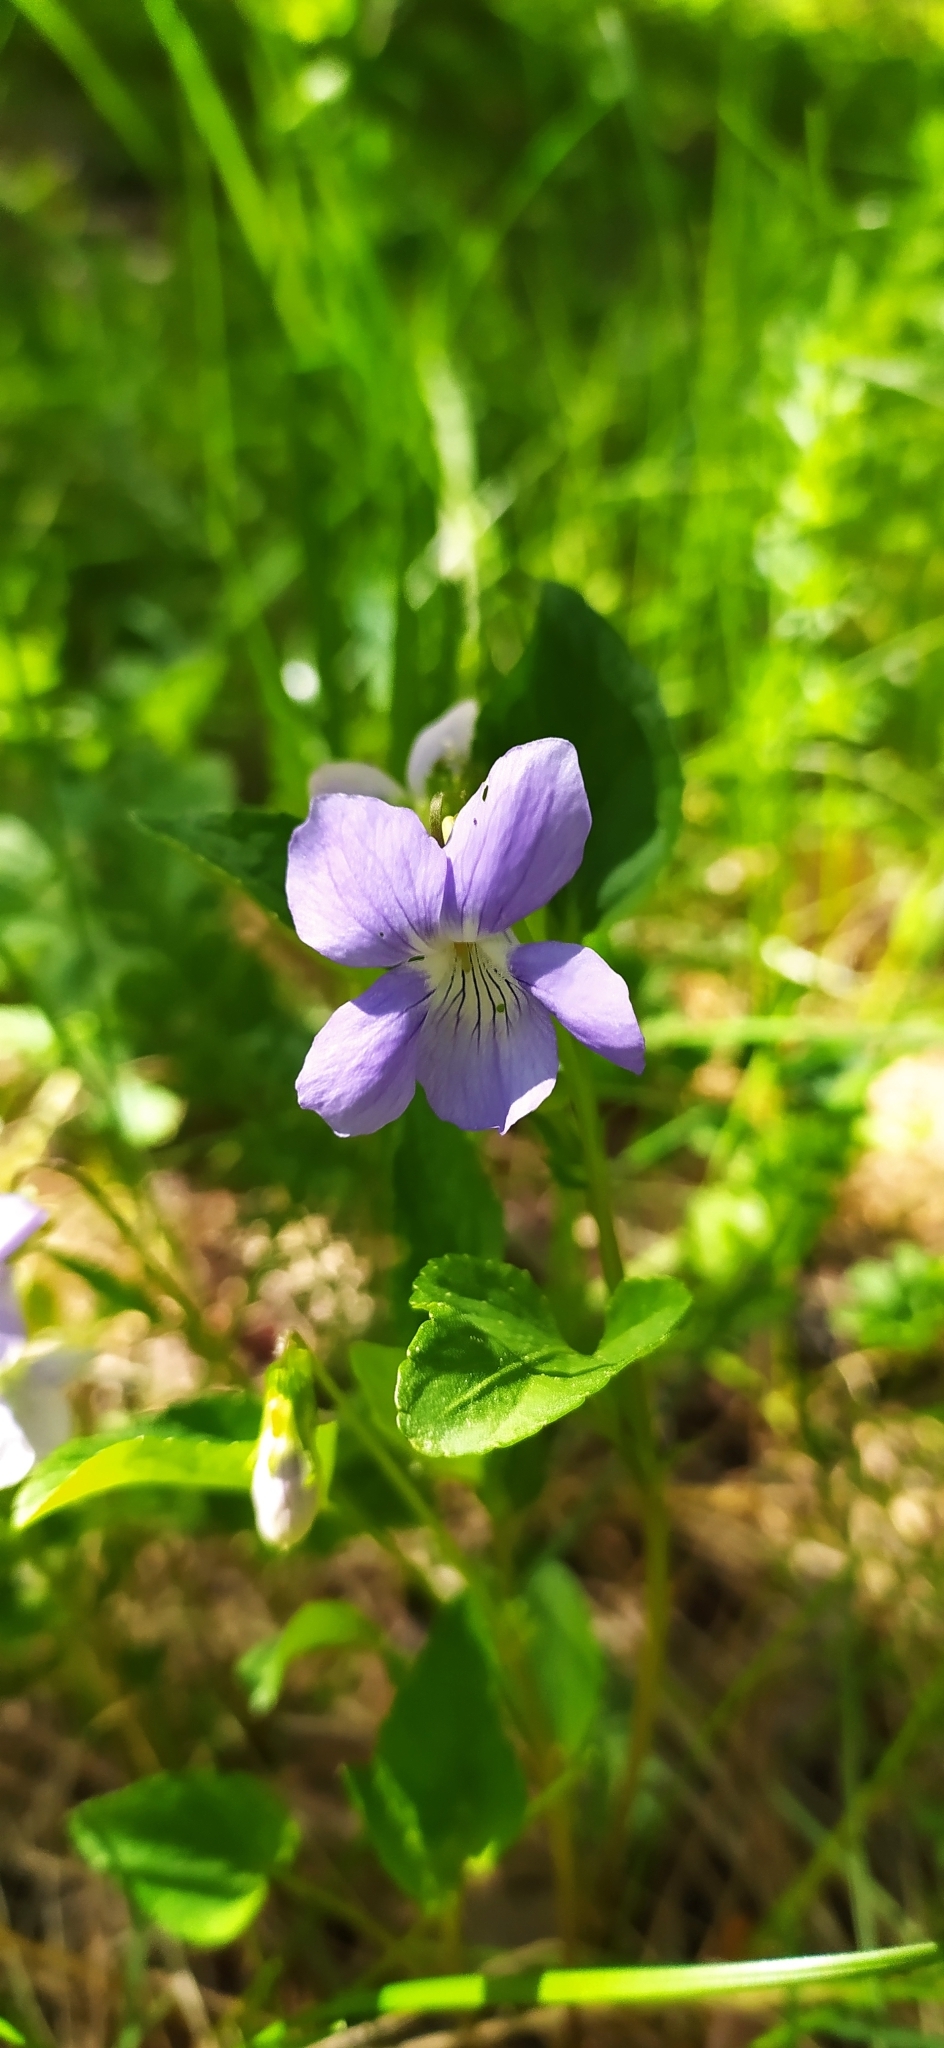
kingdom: Plantae
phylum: Tracheophyta
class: Magnoliopsida
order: Malpighiales
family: Violaceae
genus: Viola
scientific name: Viola
